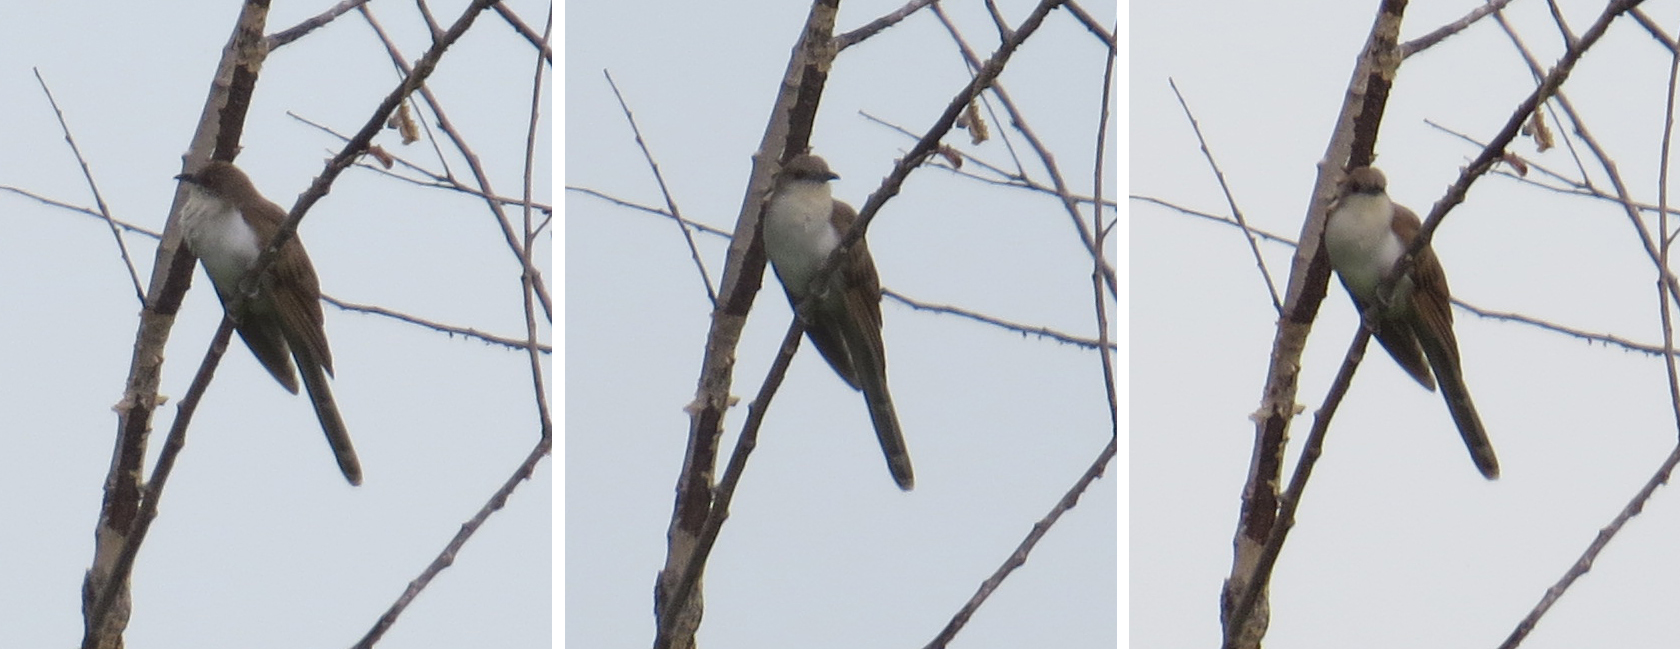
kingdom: Animalia
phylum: Chordata
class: Aves
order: Cuculiformes
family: Cuculidae
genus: Coccyzus
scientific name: Coccyzus erythropthalmus
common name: Black-billed cuckoo
